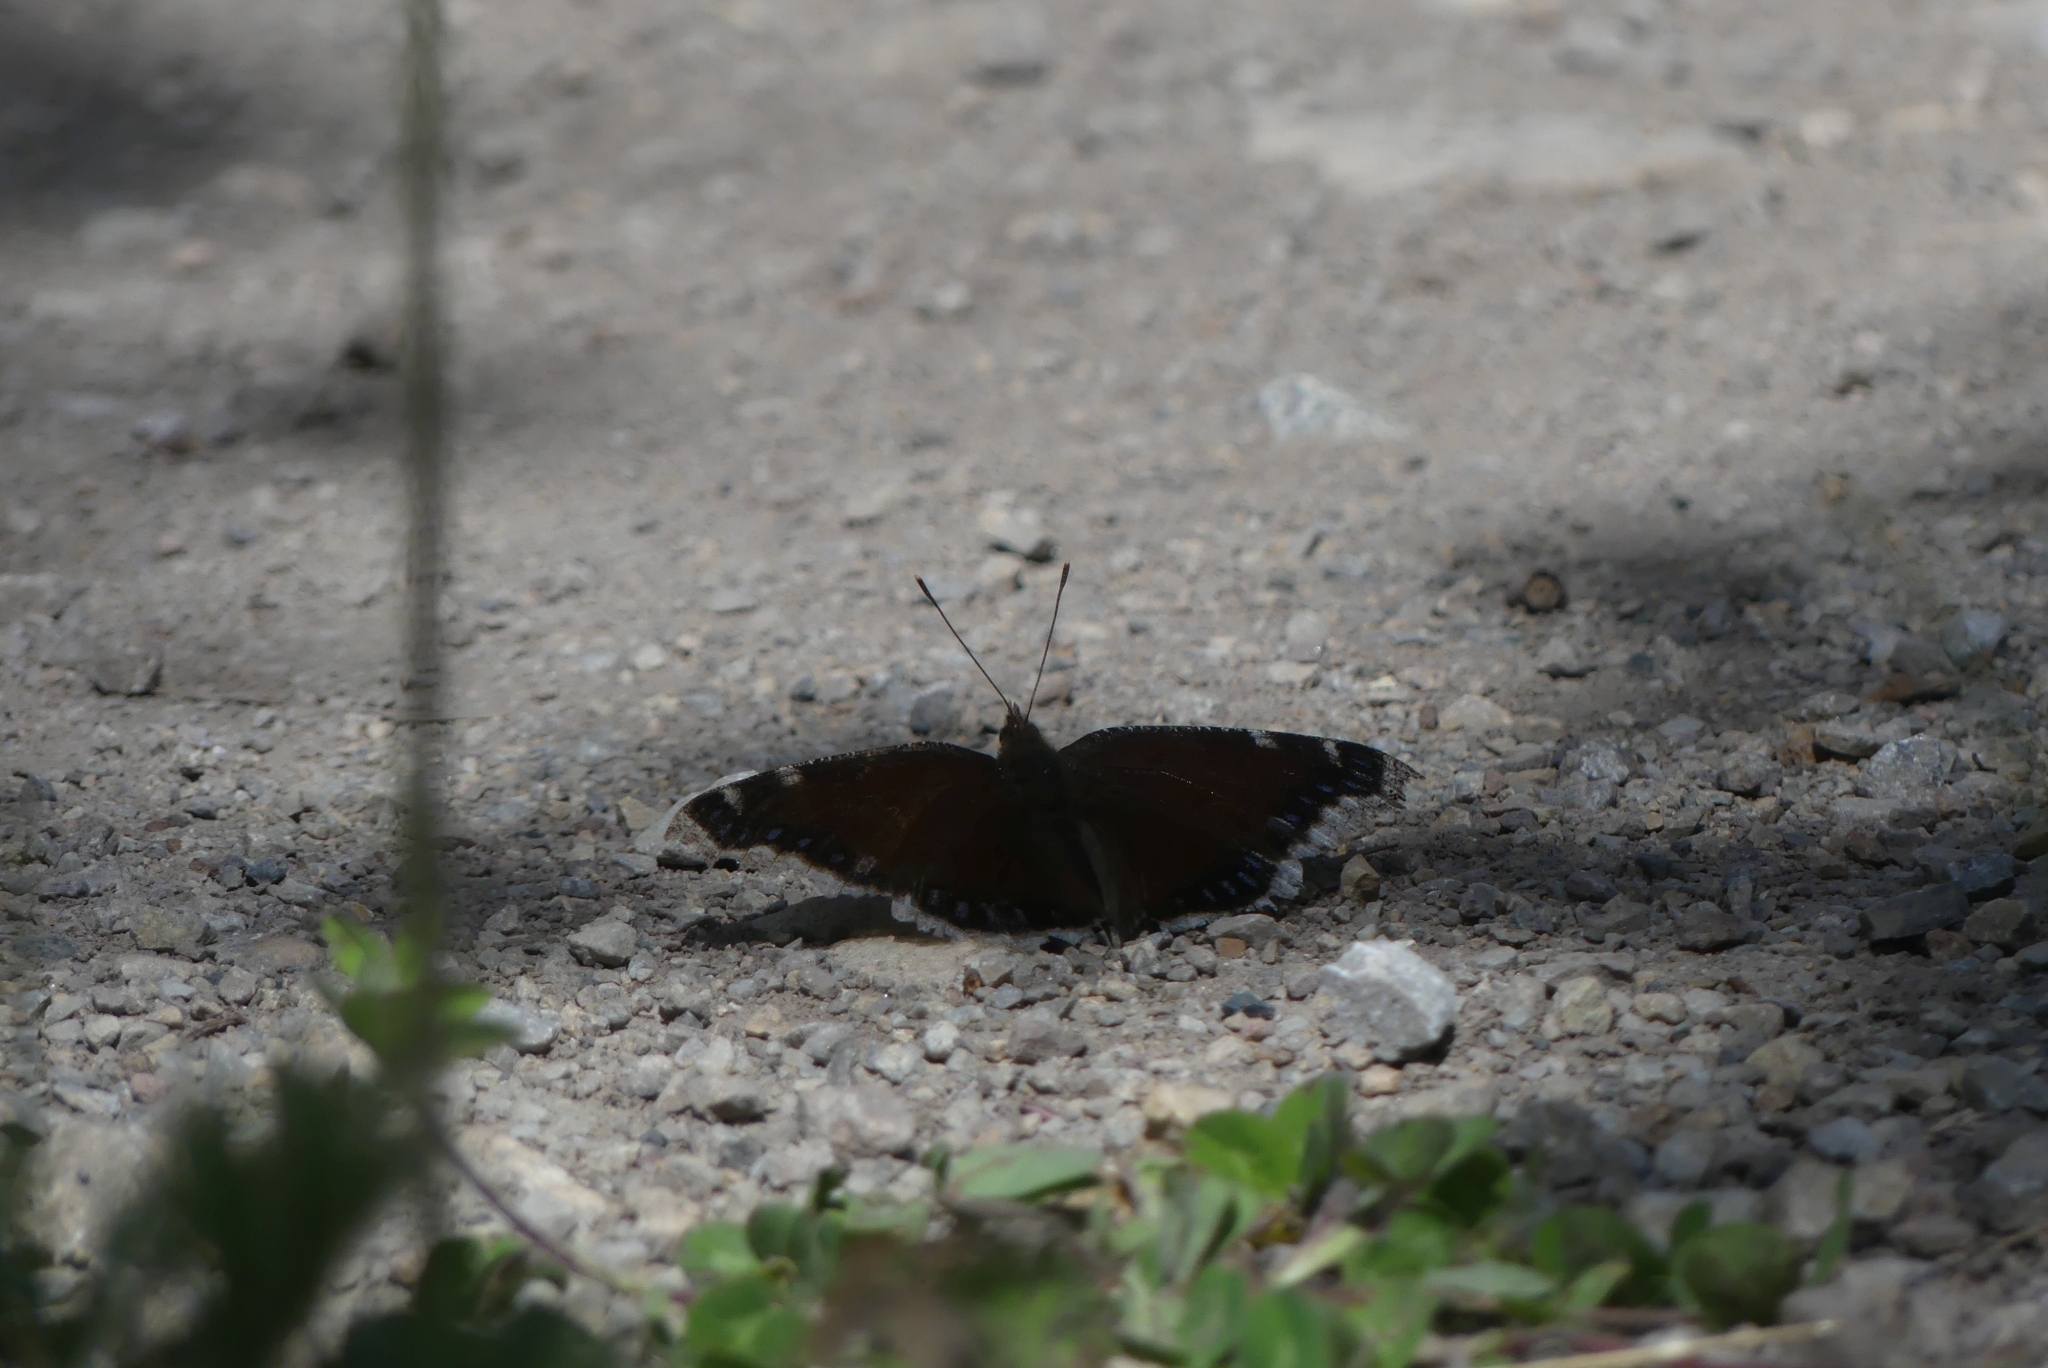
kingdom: Animalia
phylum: Arthropoda
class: Insecta
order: Lepidoptera
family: Nymphalidae
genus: Nymphalis
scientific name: Nymphalis antiopa
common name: Camberwell beauty
